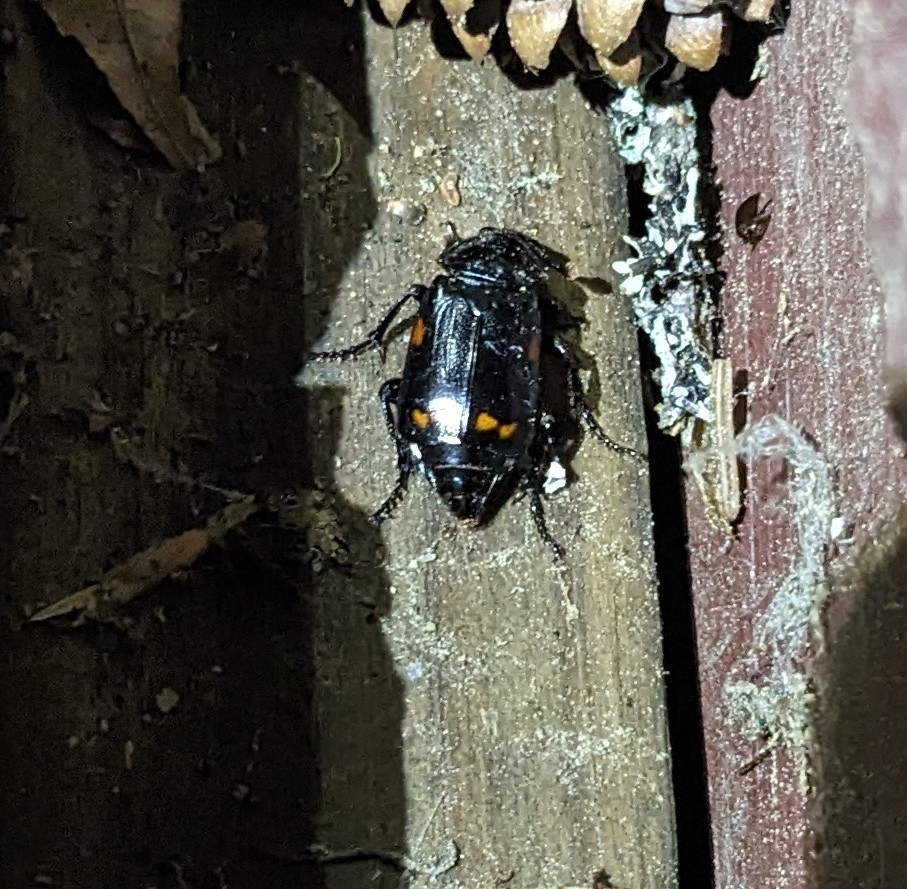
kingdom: Animalia
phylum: Arthropoda
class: Insecta
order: Coleoptera
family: Staphylinidae
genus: Nicrophorus
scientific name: Nicrophorus pustulatus
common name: Pustulated carrion beetle
